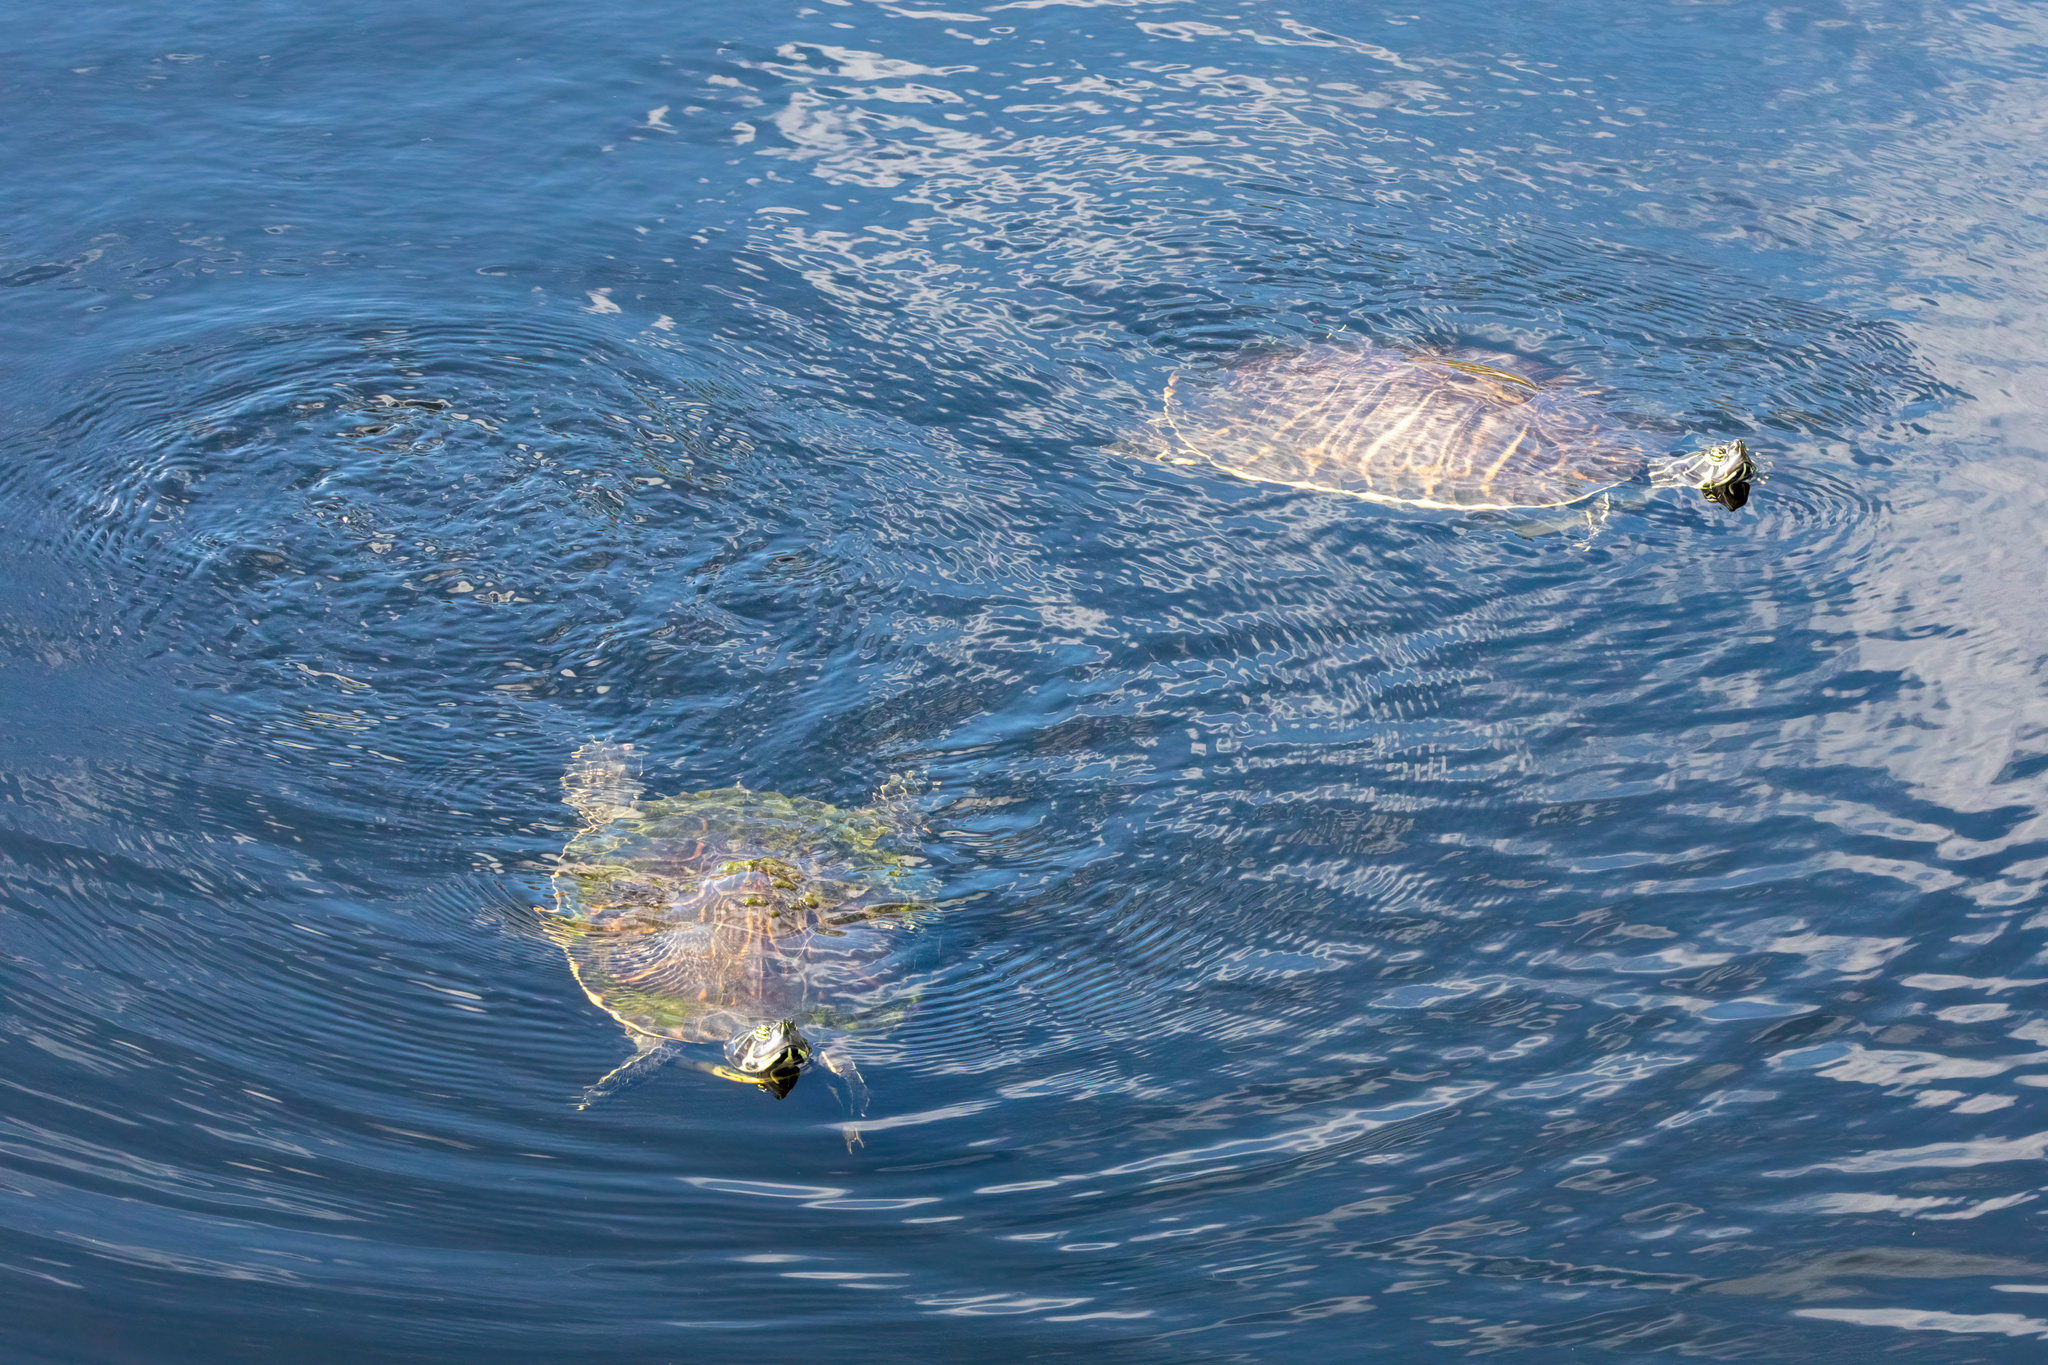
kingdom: Animalia
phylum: Chordata
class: Testudines
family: Emydidae
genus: Pseudemys
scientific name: Pseudemys peninsularis
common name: Peninsula cooter
